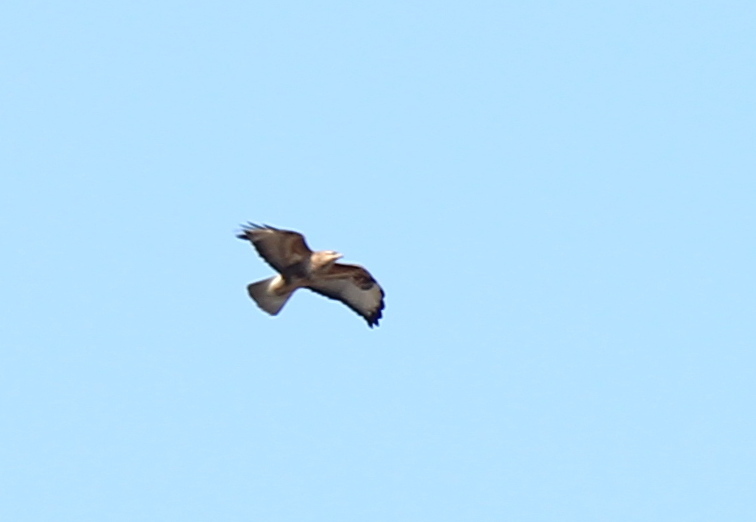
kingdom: Animalia
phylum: Chordata
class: Aves
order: Accipitriformes
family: Accipitridae
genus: Buteo
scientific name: Buteo buteo
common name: Common buzzard
